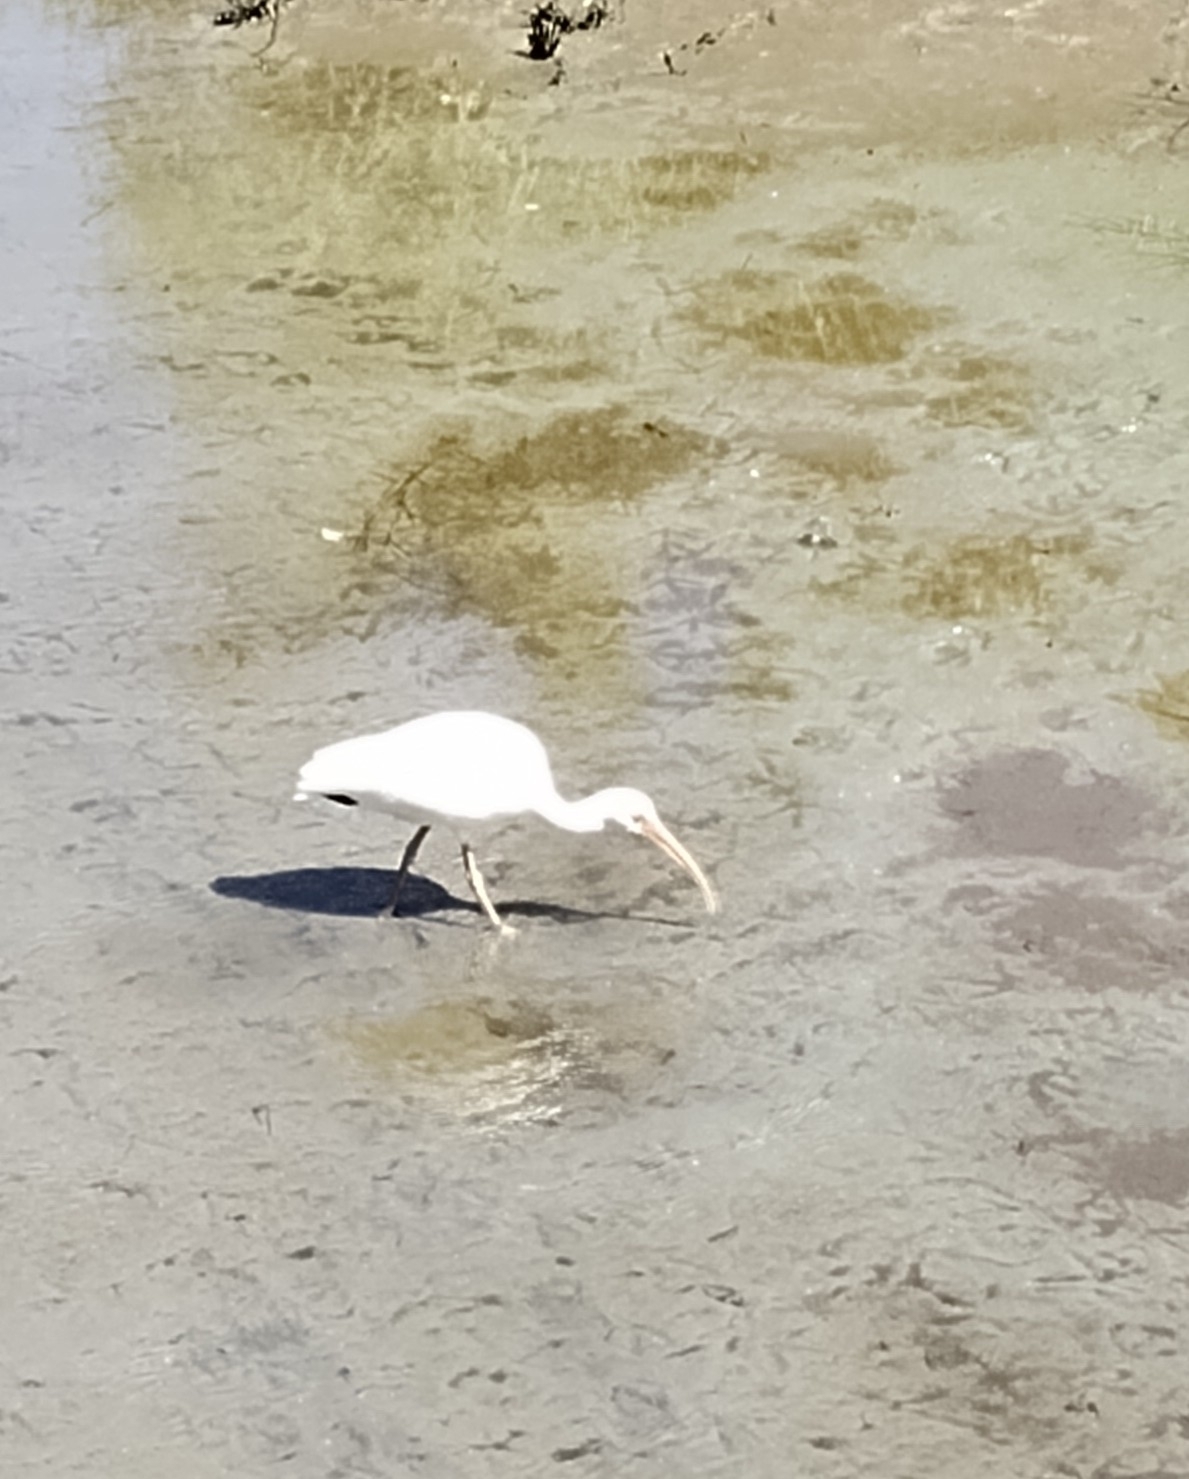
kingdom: Animalia
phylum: Chordata
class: Aves
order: Pelecaniformes
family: Threskiornithidae
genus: Eudocimus
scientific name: Eudocimus albus
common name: White ibis
